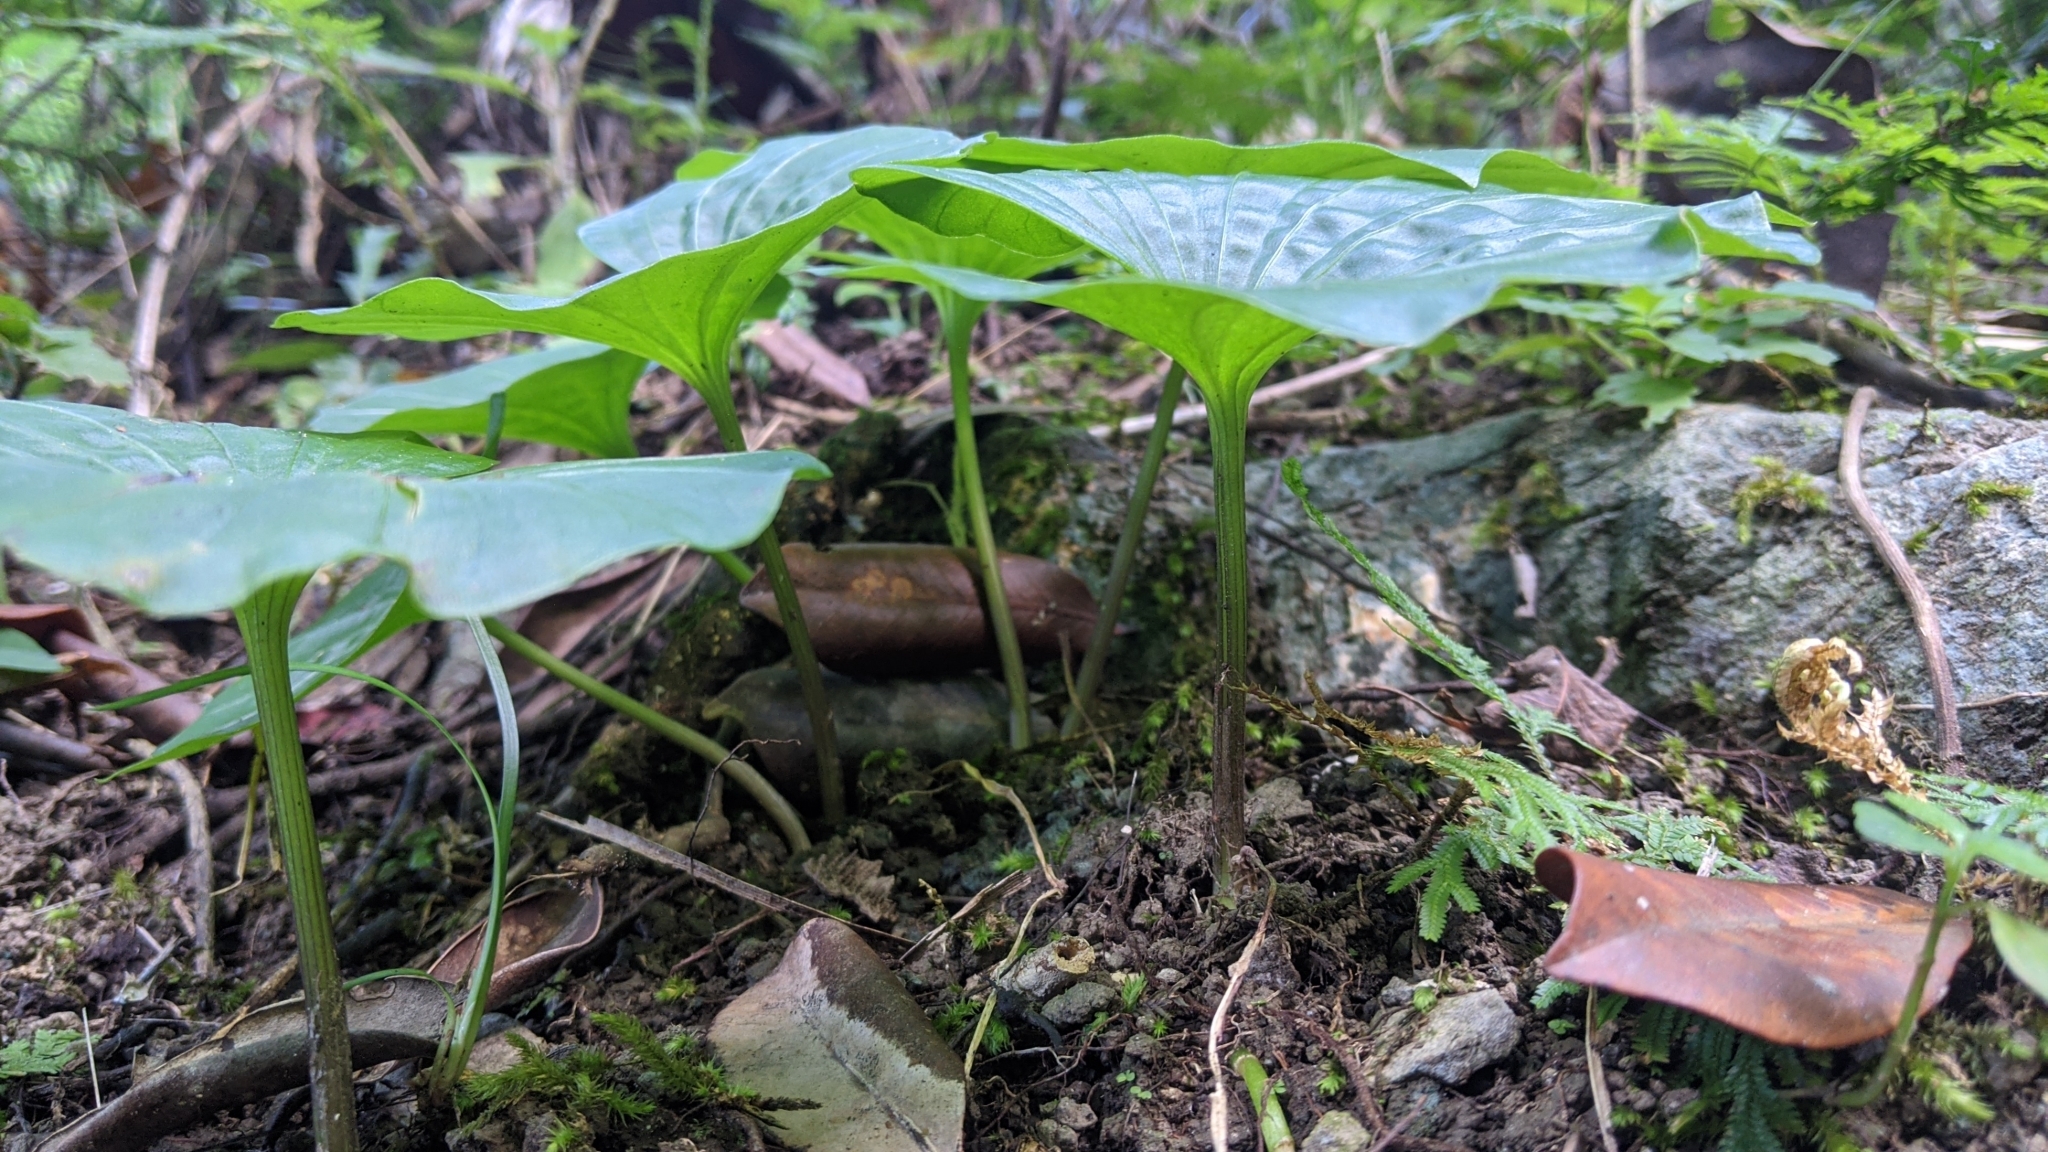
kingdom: Plantae
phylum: Tracheophyta
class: Liliopsida
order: Asparagales
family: Orchidaceae
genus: Nervilia
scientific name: Nervilia concolor
